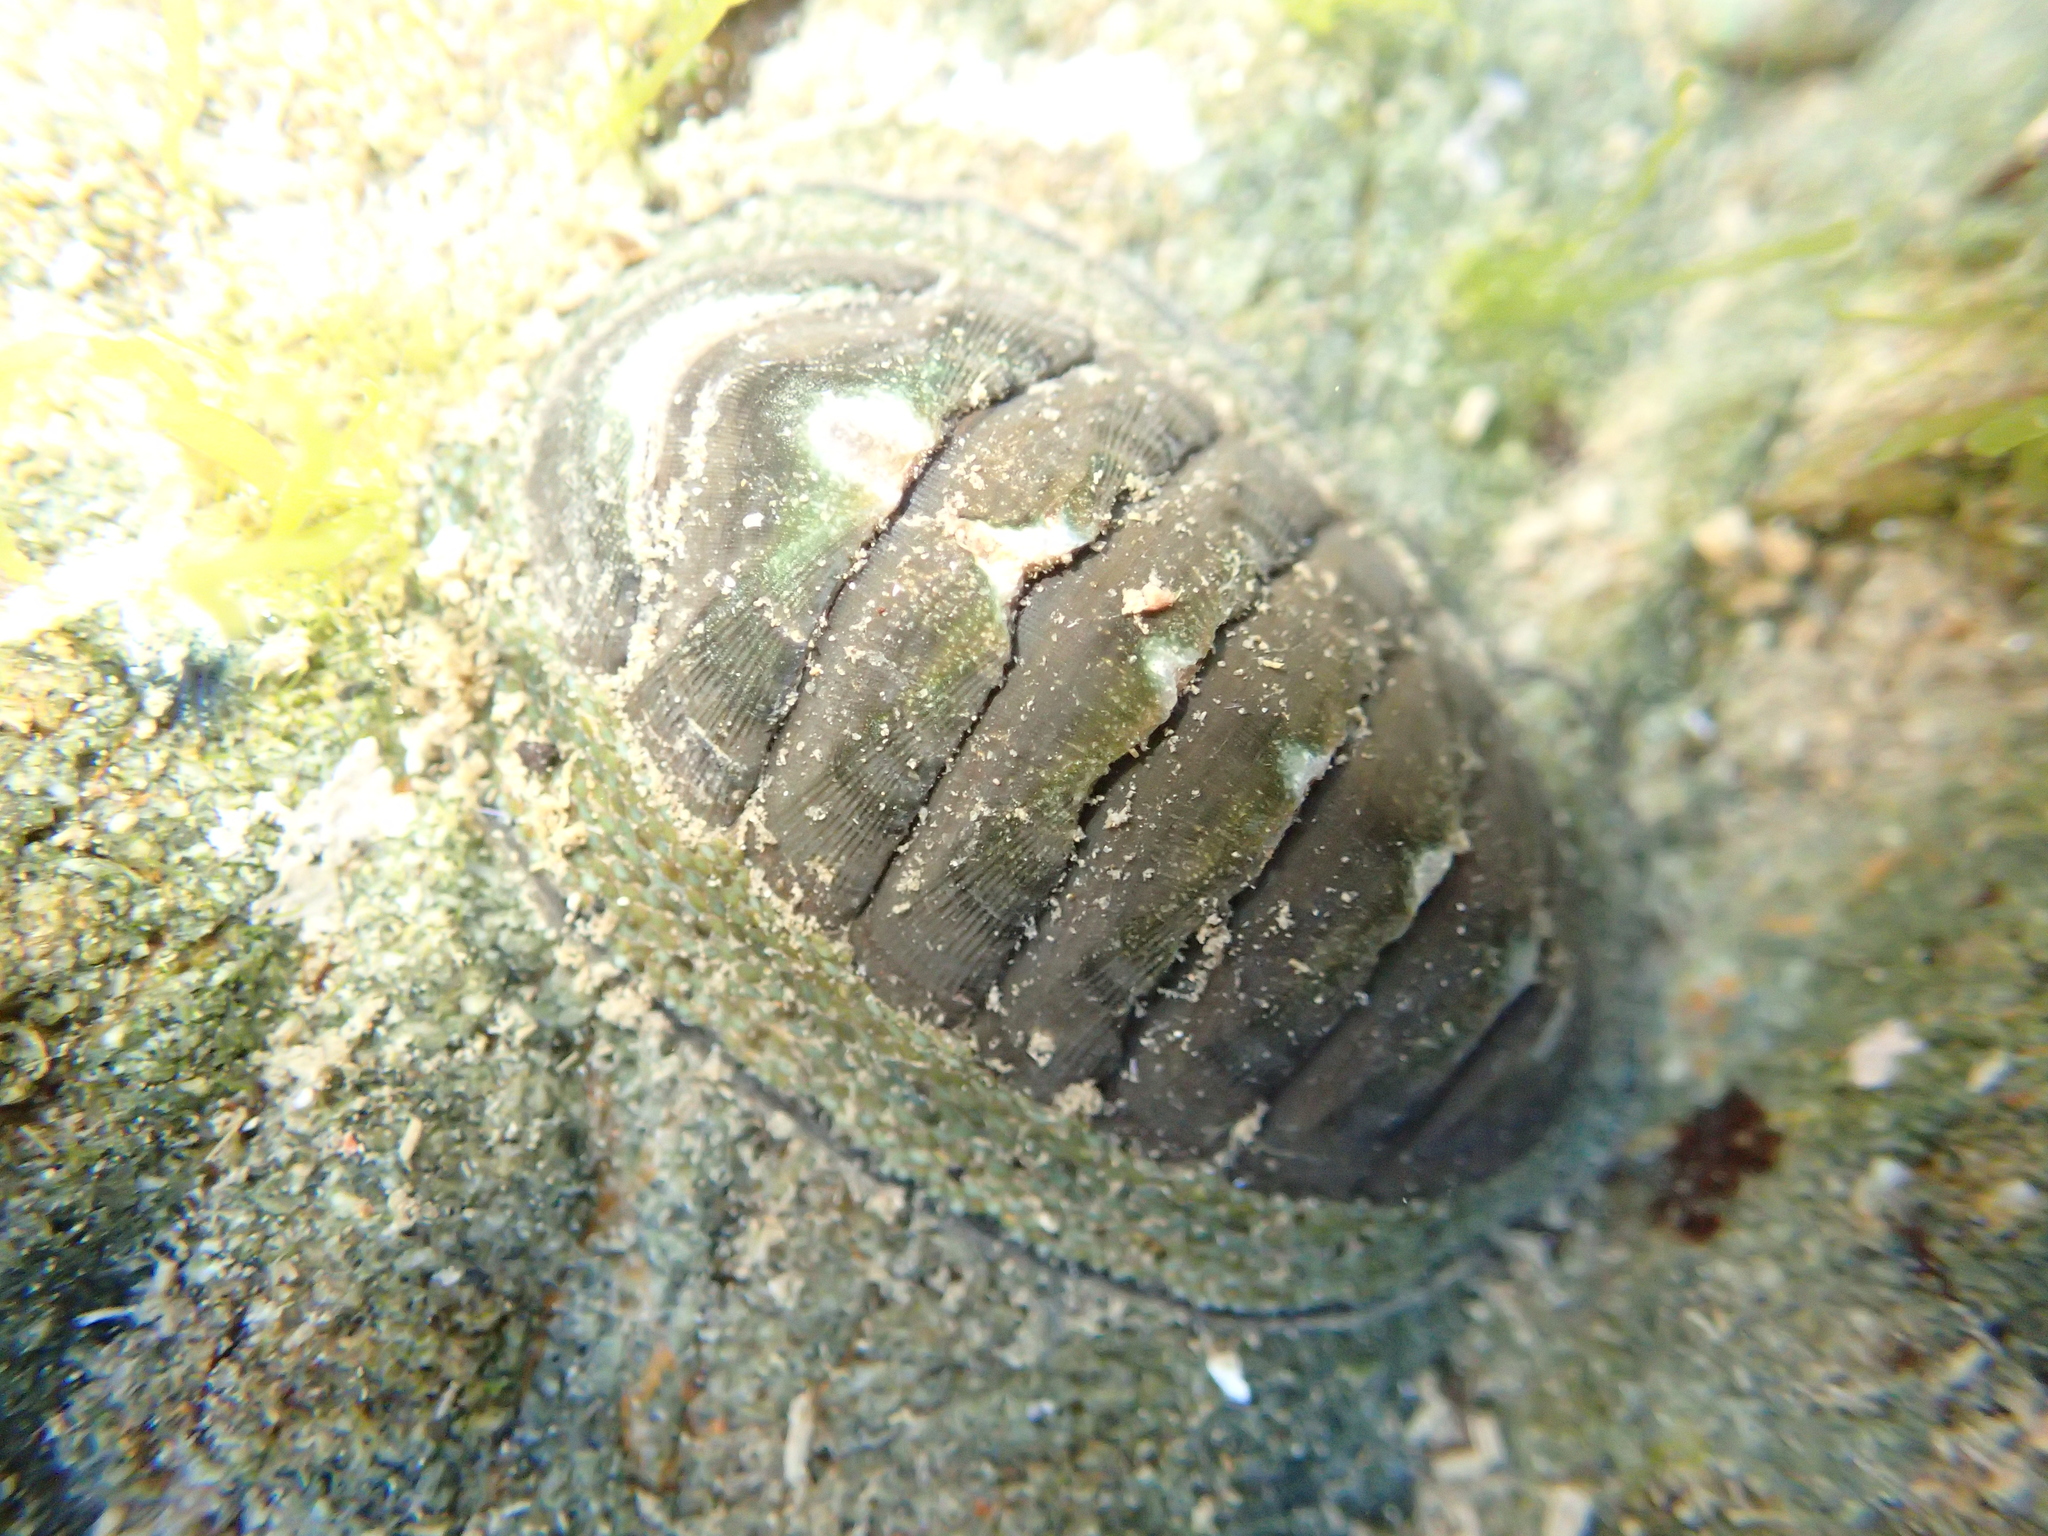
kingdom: Animalia
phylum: Mollusca
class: Polyplacophora
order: Chitonida
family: Chitonidae
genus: Chiton
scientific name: Chiton glaucus
